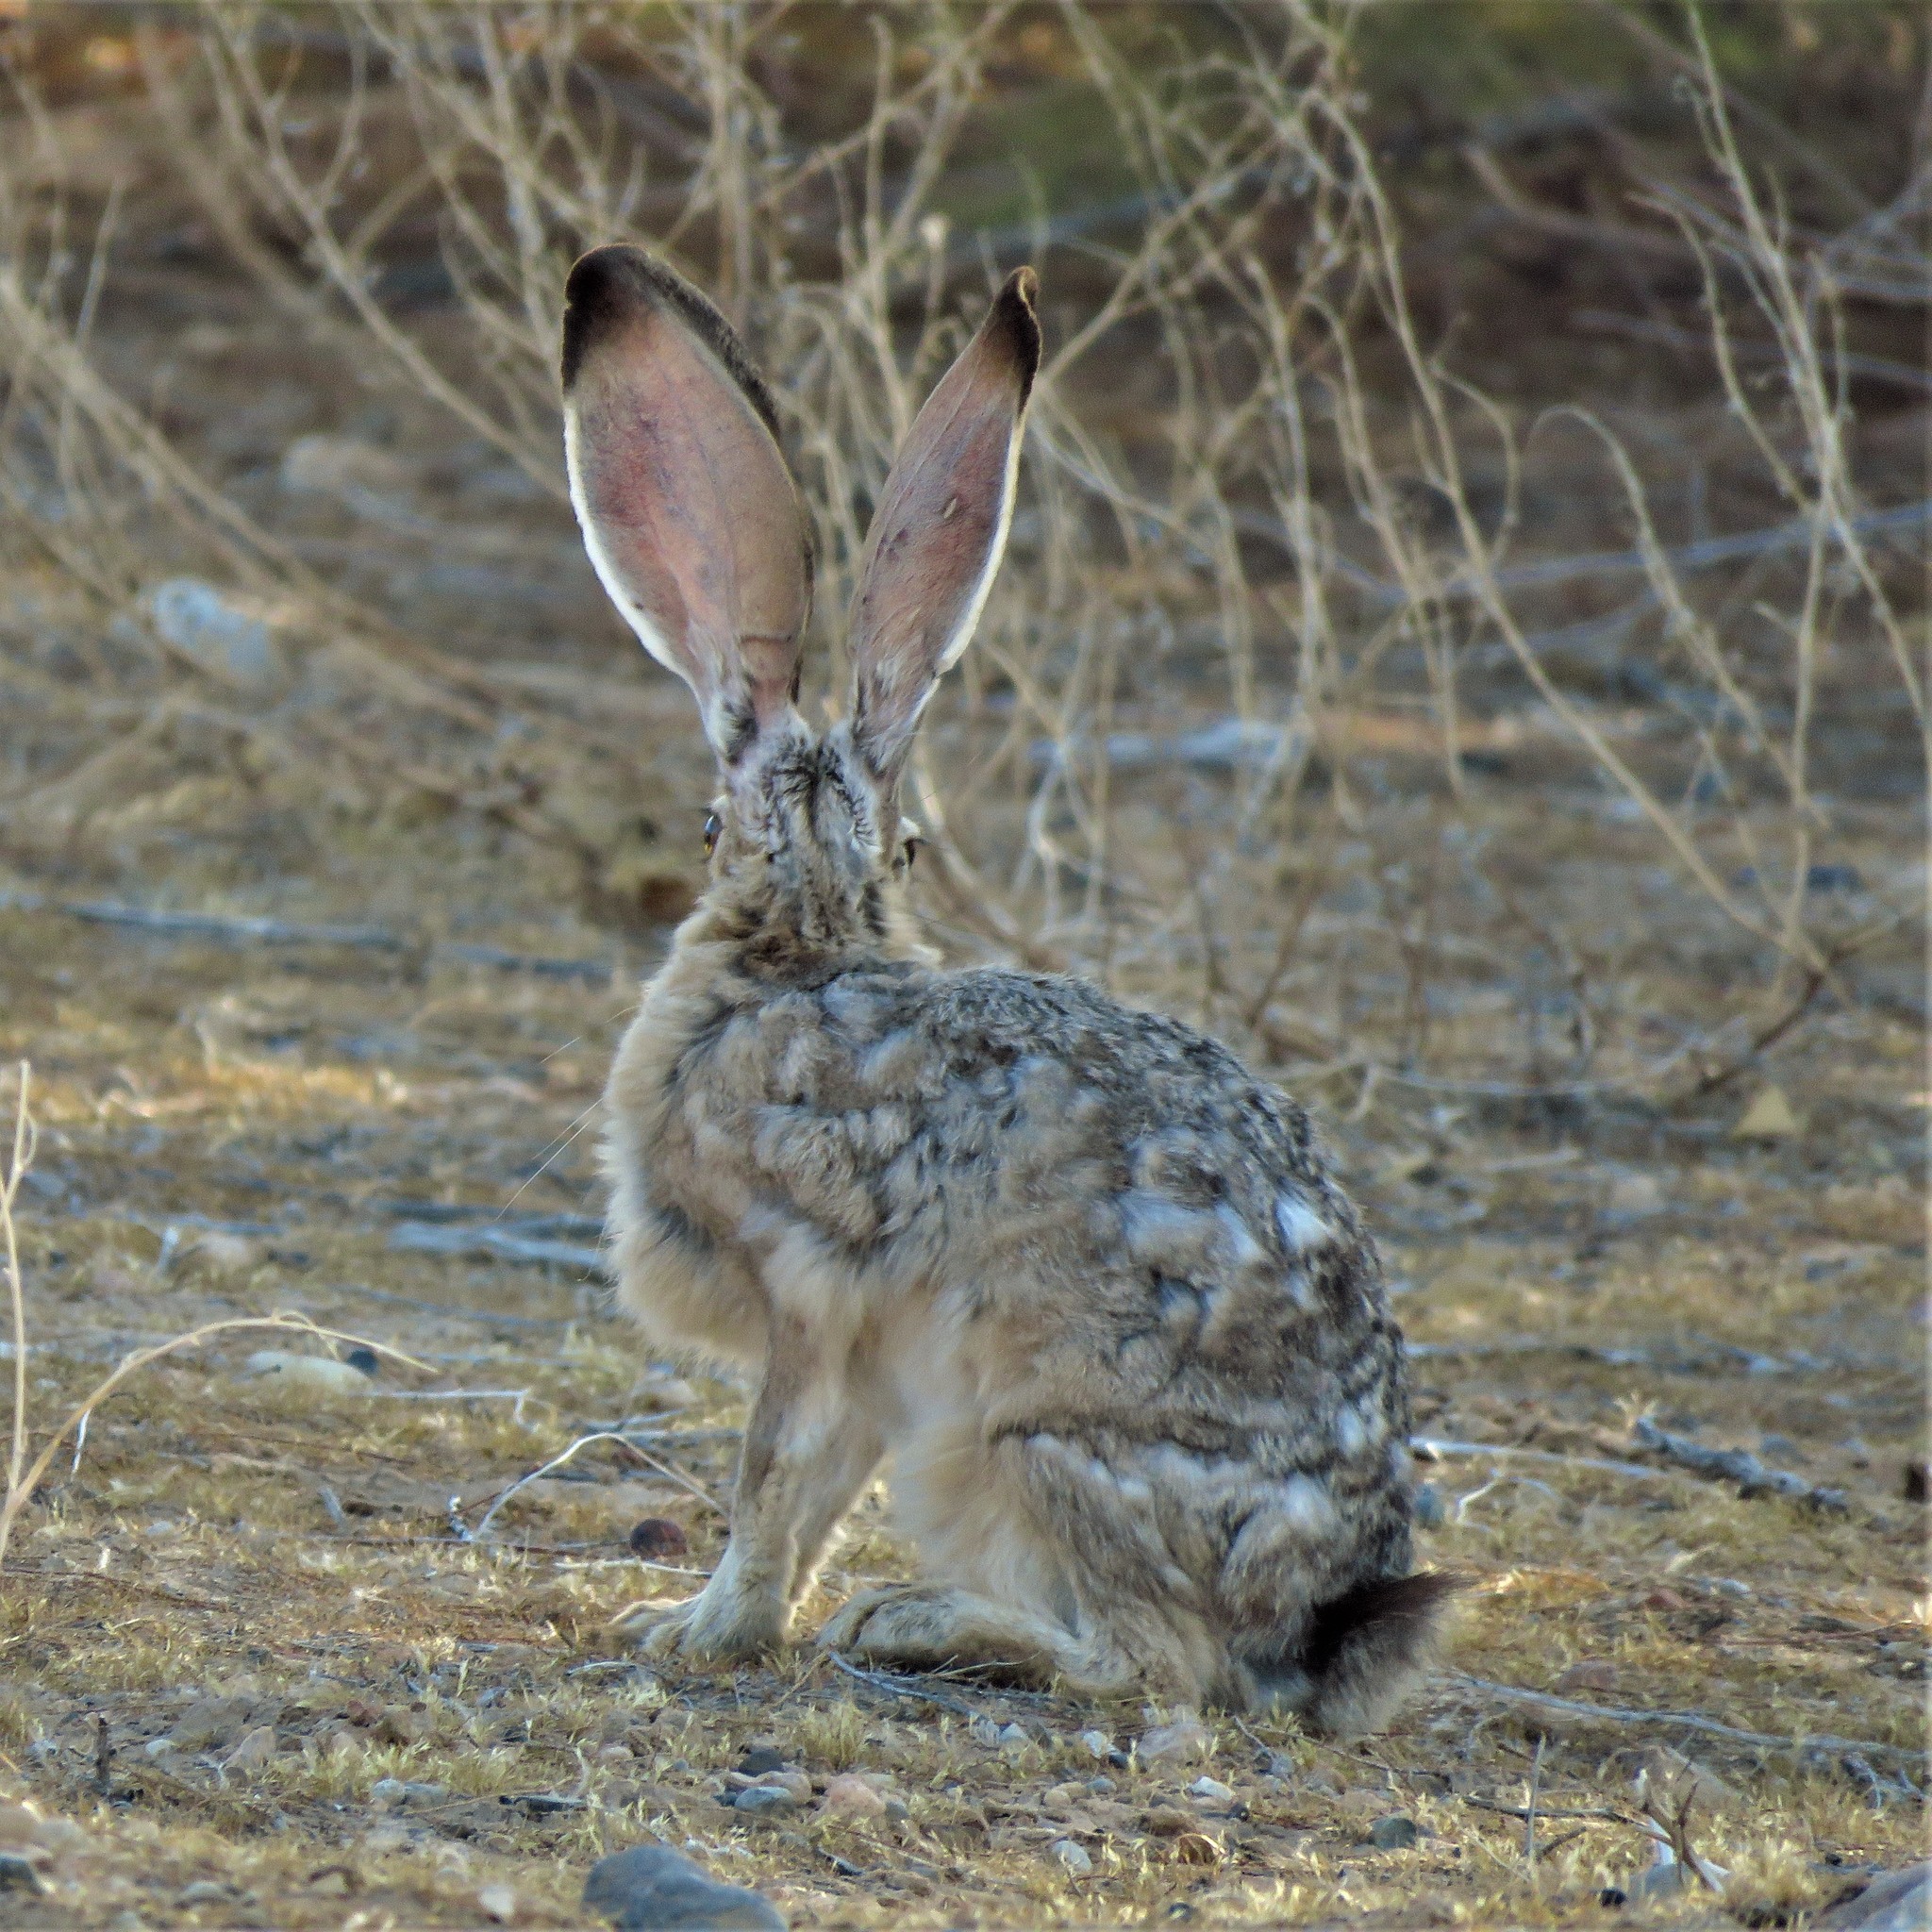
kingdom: Animalia
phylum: Chordata
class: Mammalia
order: Lagomorpha
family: Leporidae
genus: Lepus
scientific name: Lepus californicus
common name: Black-tailed jackrabbit
